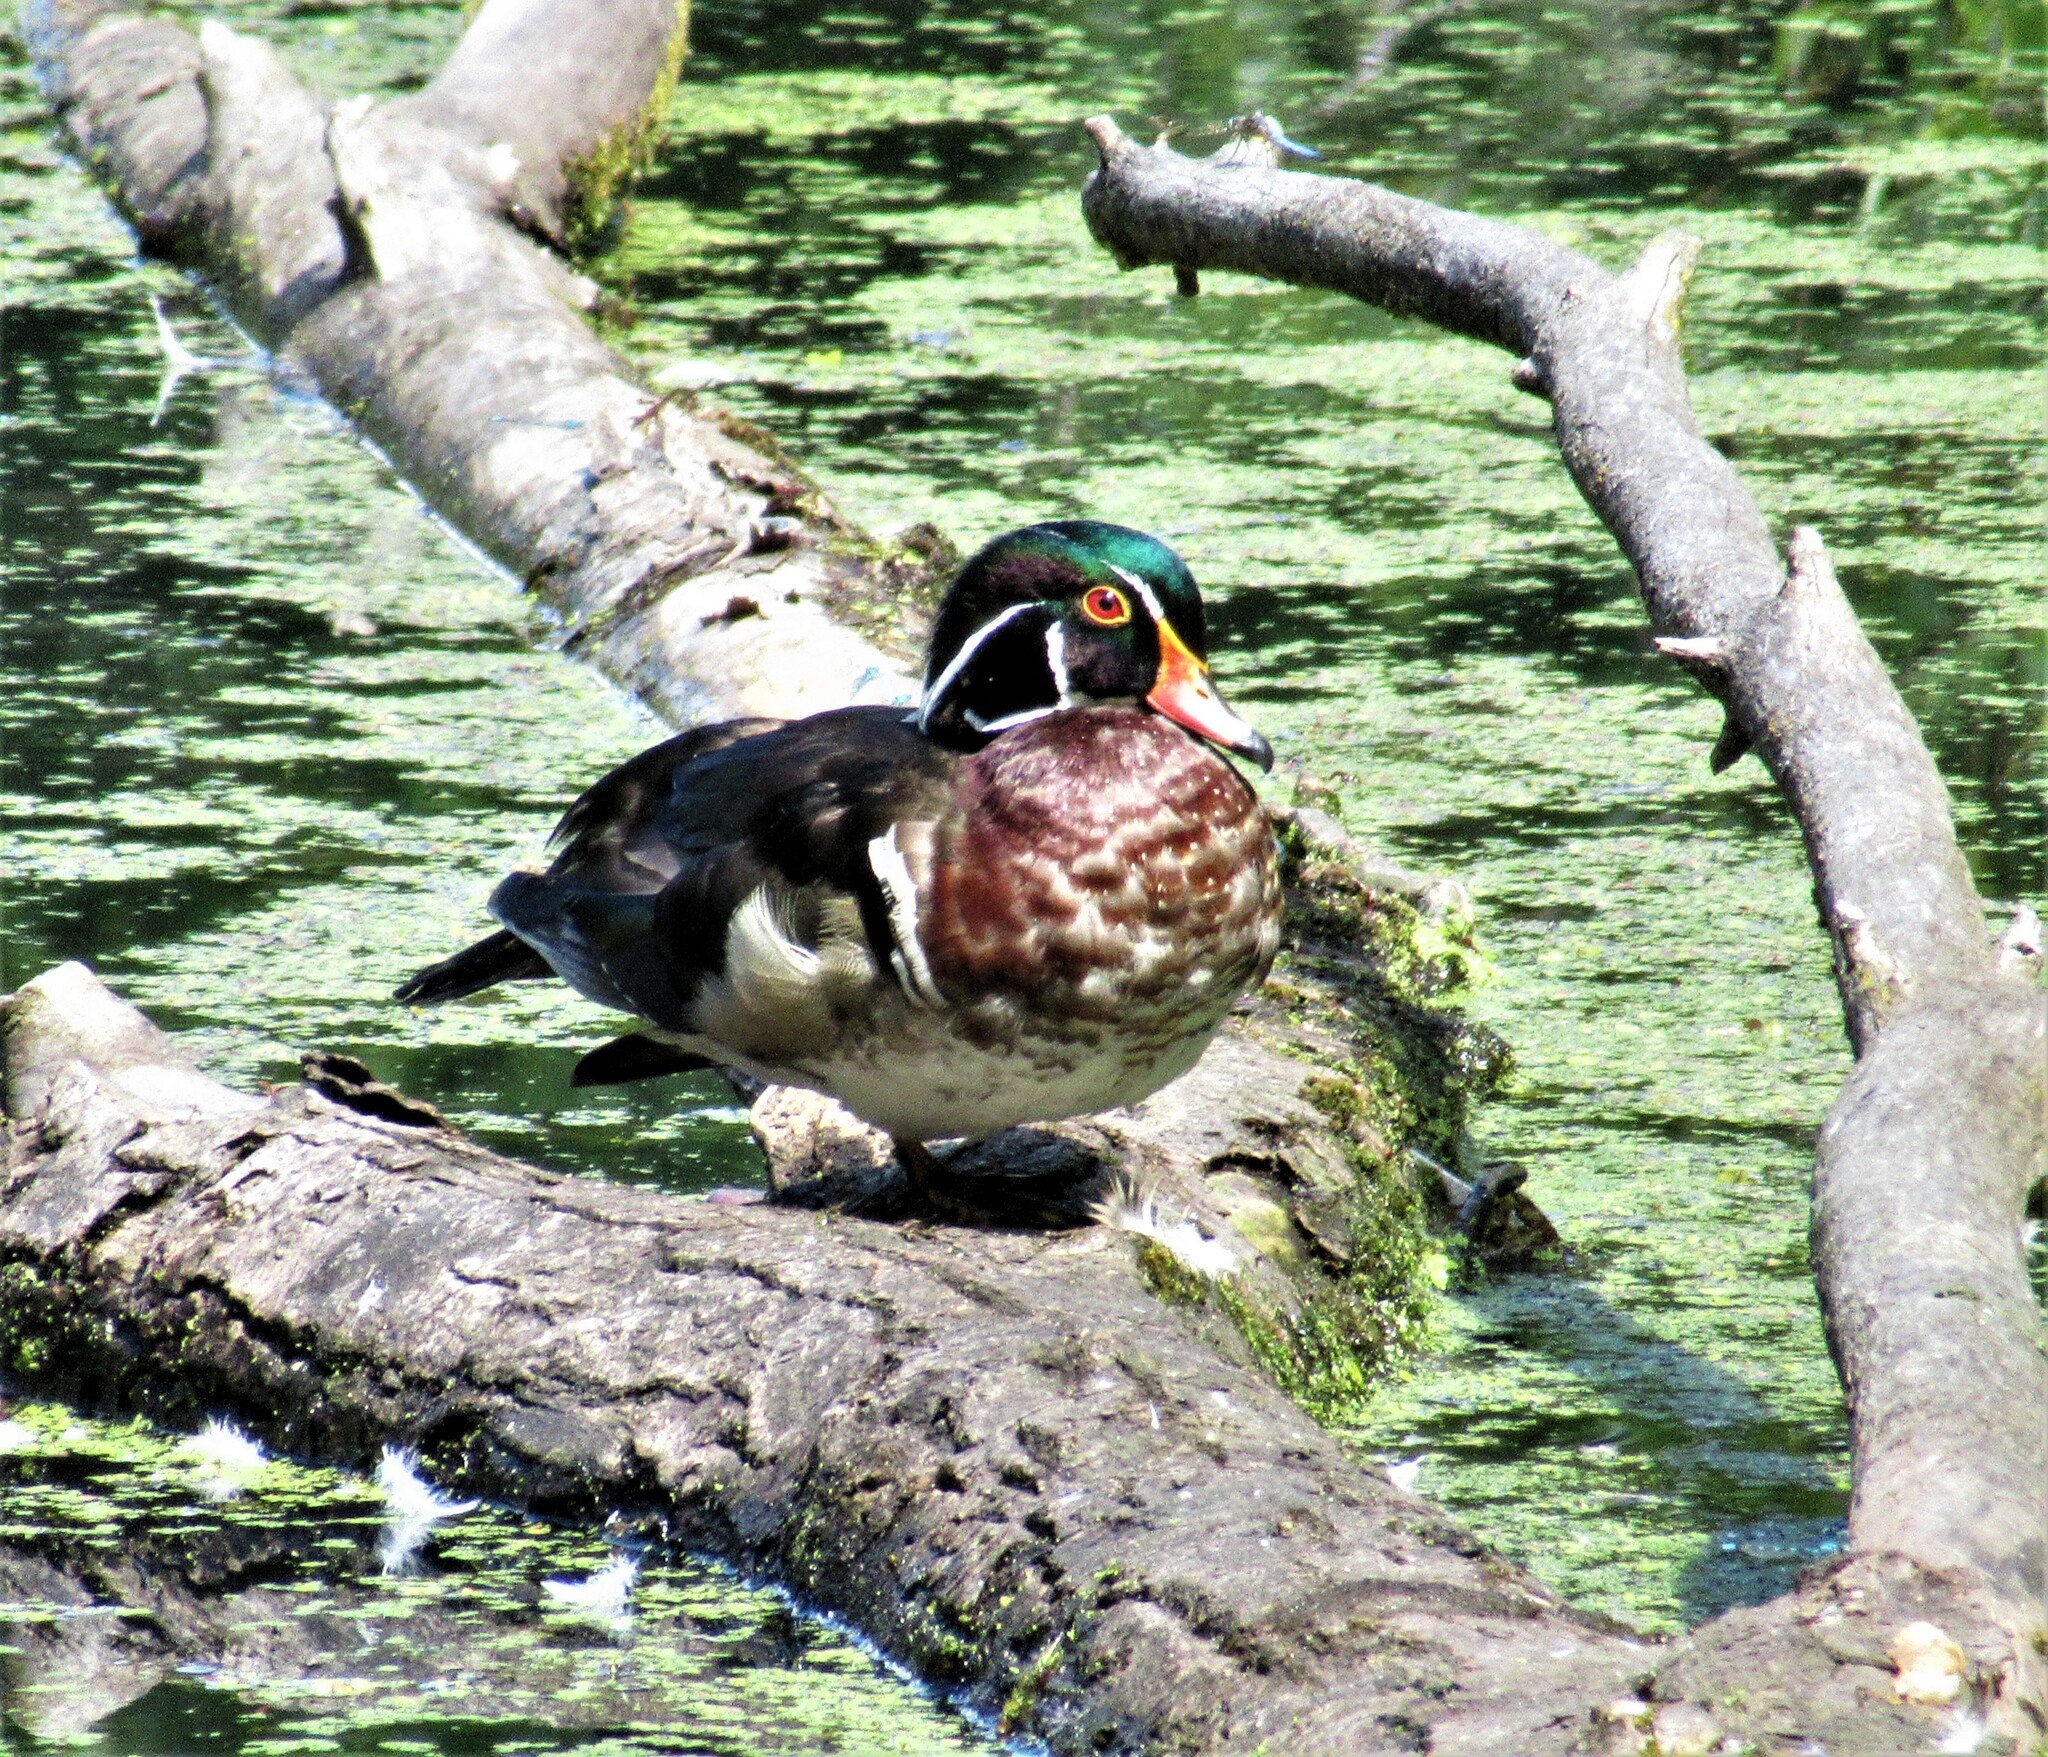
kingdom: Animalia
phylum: Chordata
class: Aves
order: Anseriformes
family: Anatidae
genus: Aix
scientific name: Aix sponsa
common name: Wood duck
